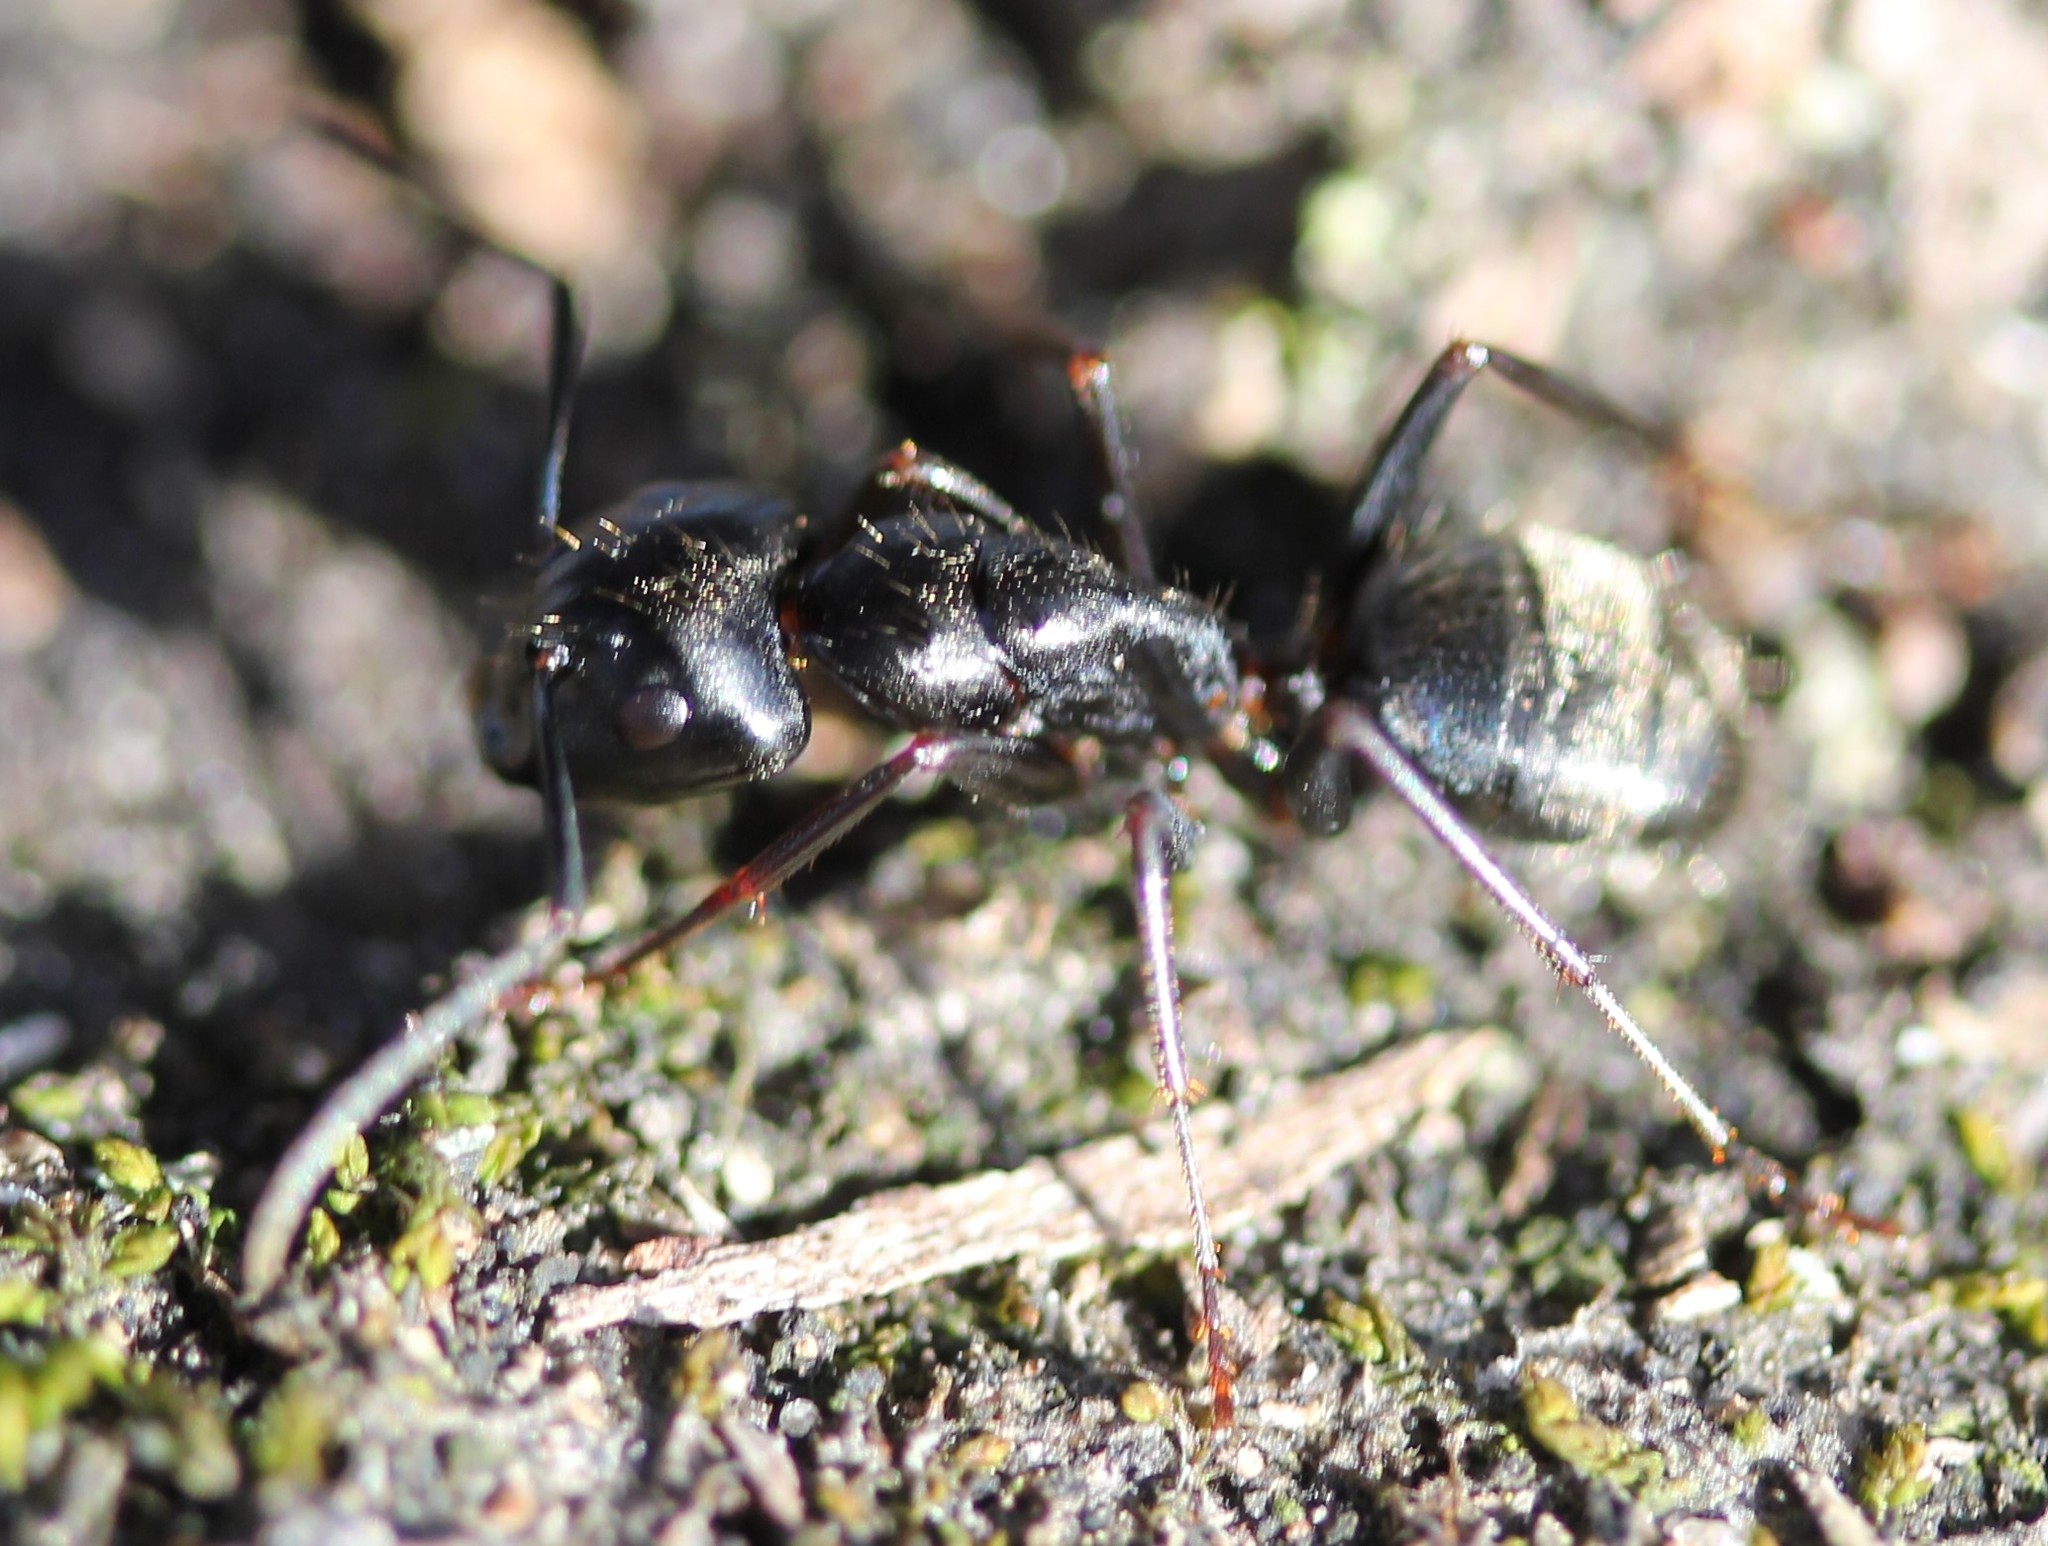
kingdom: Animalia
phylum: Arthropoda
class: Insecta
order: Hymenoptera
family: Formicidae
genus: Camponotus
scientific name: Camponotus pennsylvanicus
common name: Black carpenter ant
